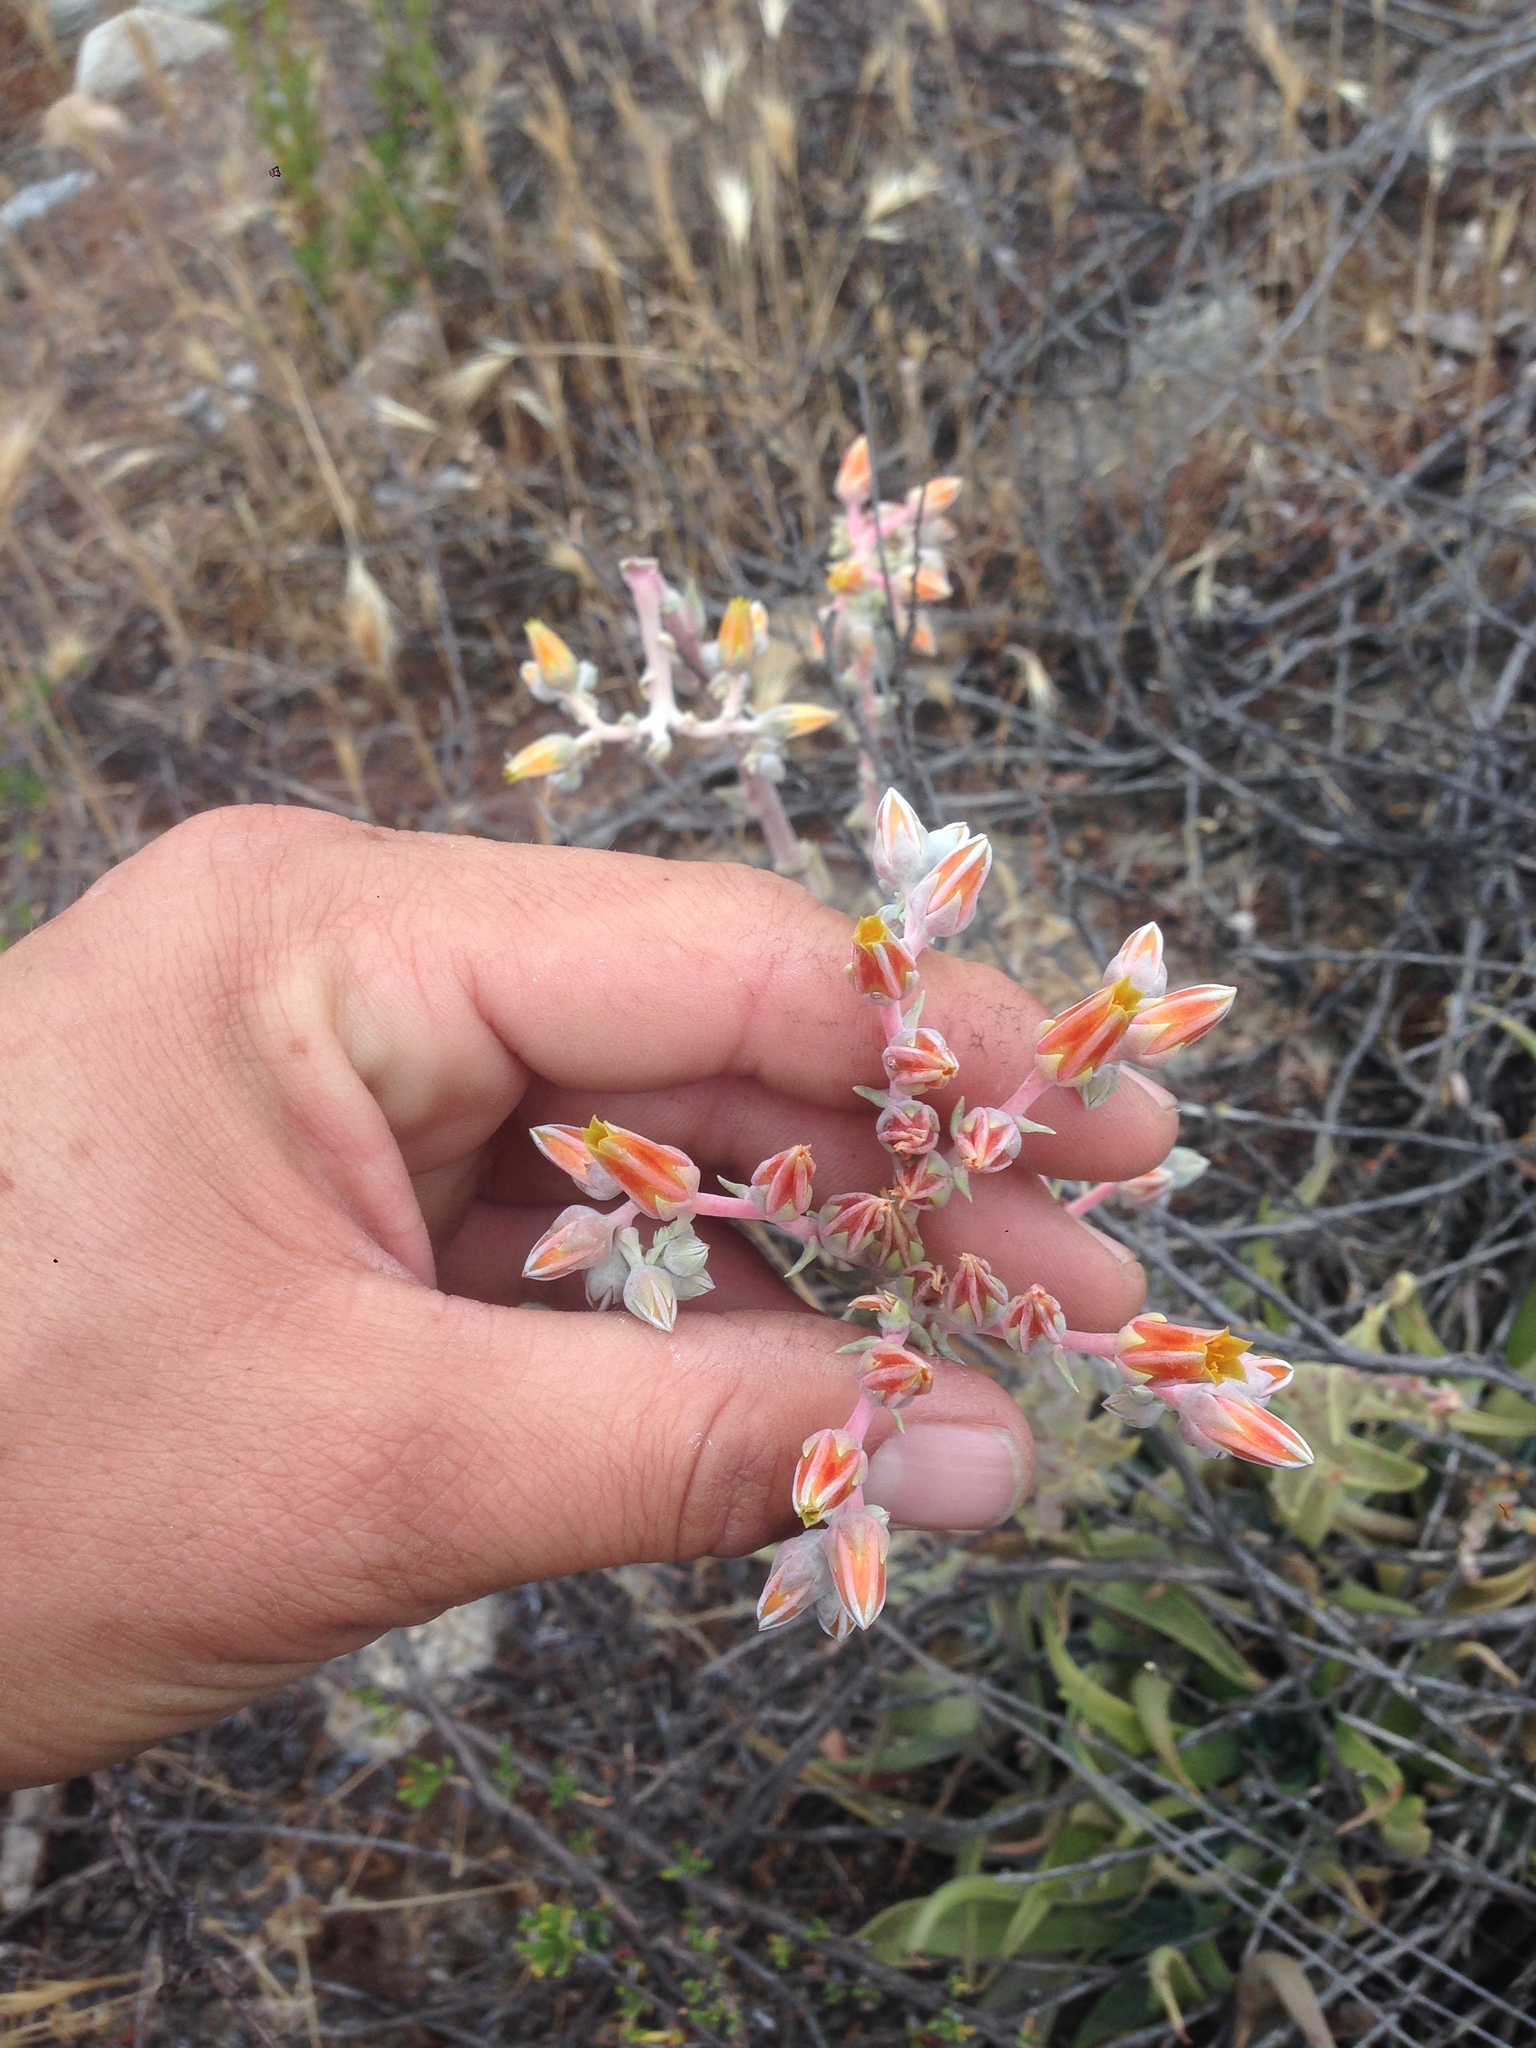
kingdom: Plantae
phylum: Tracheophyta
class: Magnoliopsida
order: Saxifragales
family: Crassulaceae
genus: Dudleya
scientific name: Dudleya lanceolata
